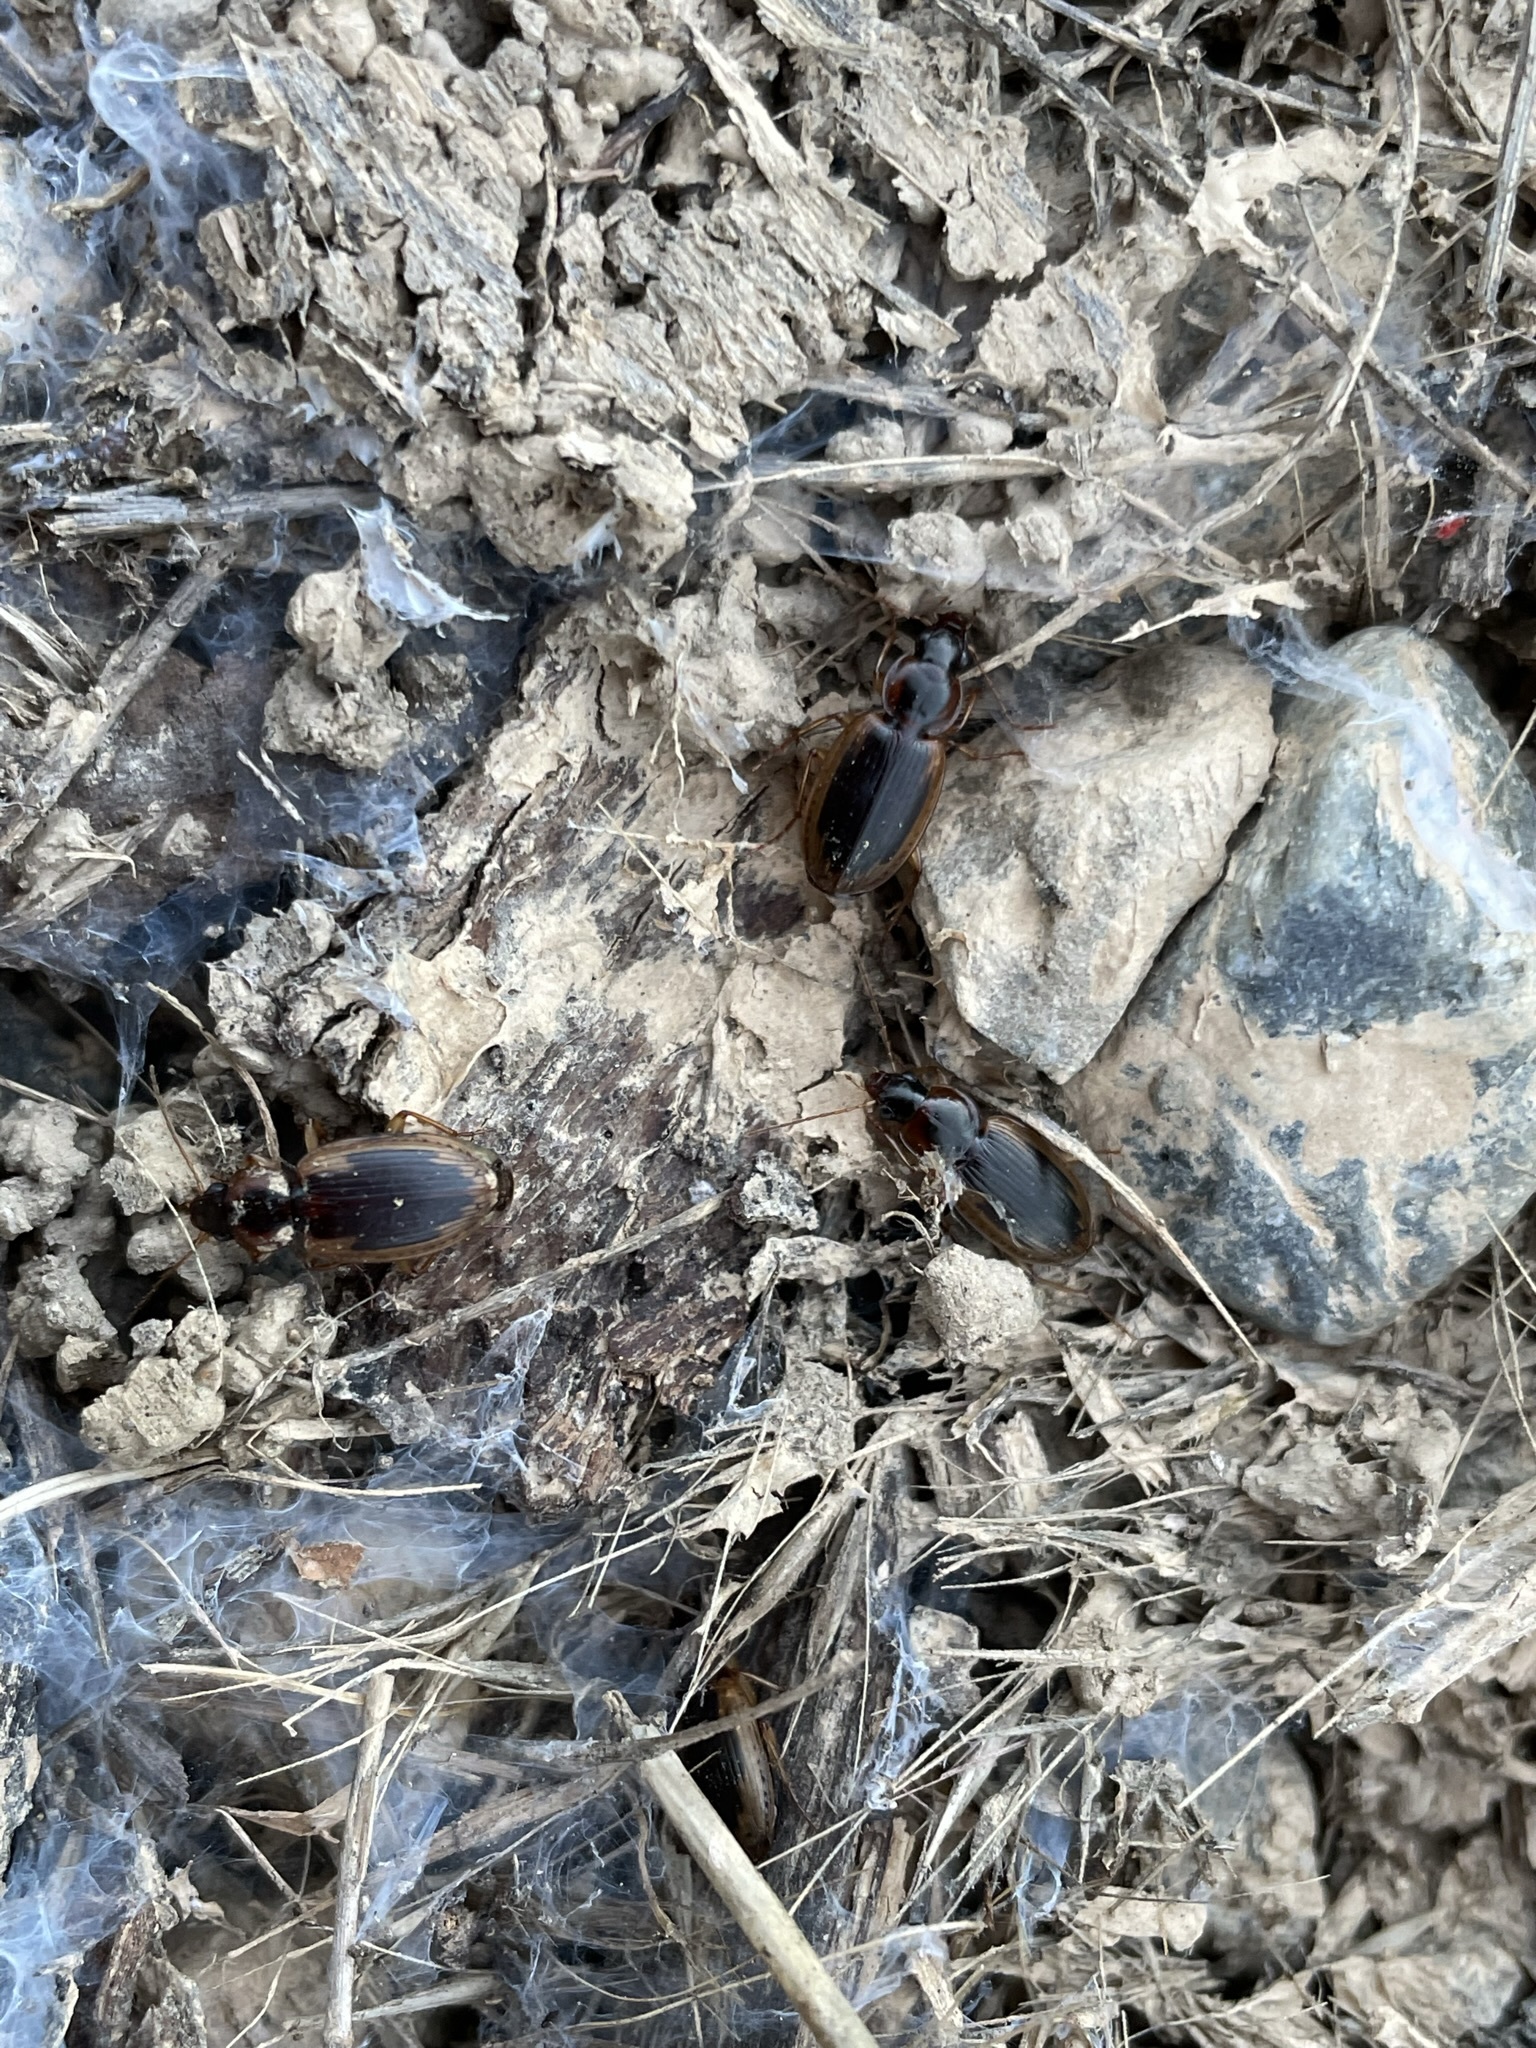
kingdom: Animalia
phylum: Arthropoda
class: Insecta
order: Coleoptera
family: Carabidae
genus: Tanystoma
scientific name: Tanystoma maculicolle
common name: Tule beetle
